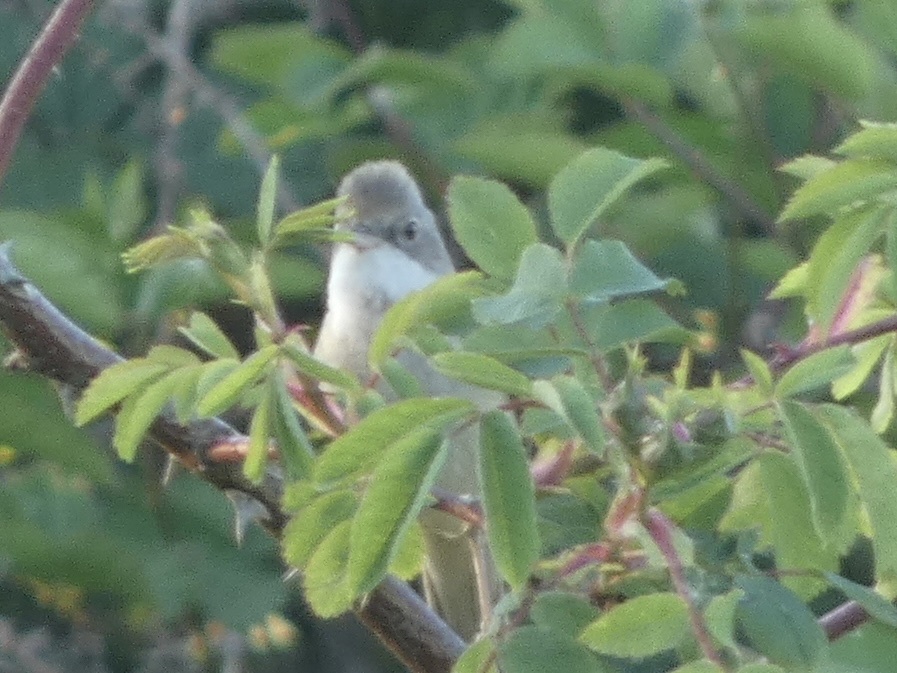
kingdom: Animalia
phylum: Chordata
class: Aves
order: Passeriformes
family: Sylviidae
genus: Sylvia
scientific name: Sylvia communis
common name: Common whitethroat
